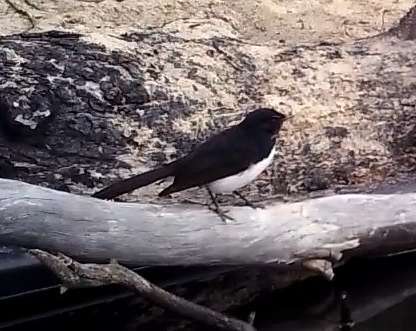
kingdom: Animalia
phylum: Chordata
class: Aves
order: Passeriformes
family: Rhipiduridae
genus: Rhipidura
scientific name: Rhipidura leucophrys
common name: Willie wagtail
